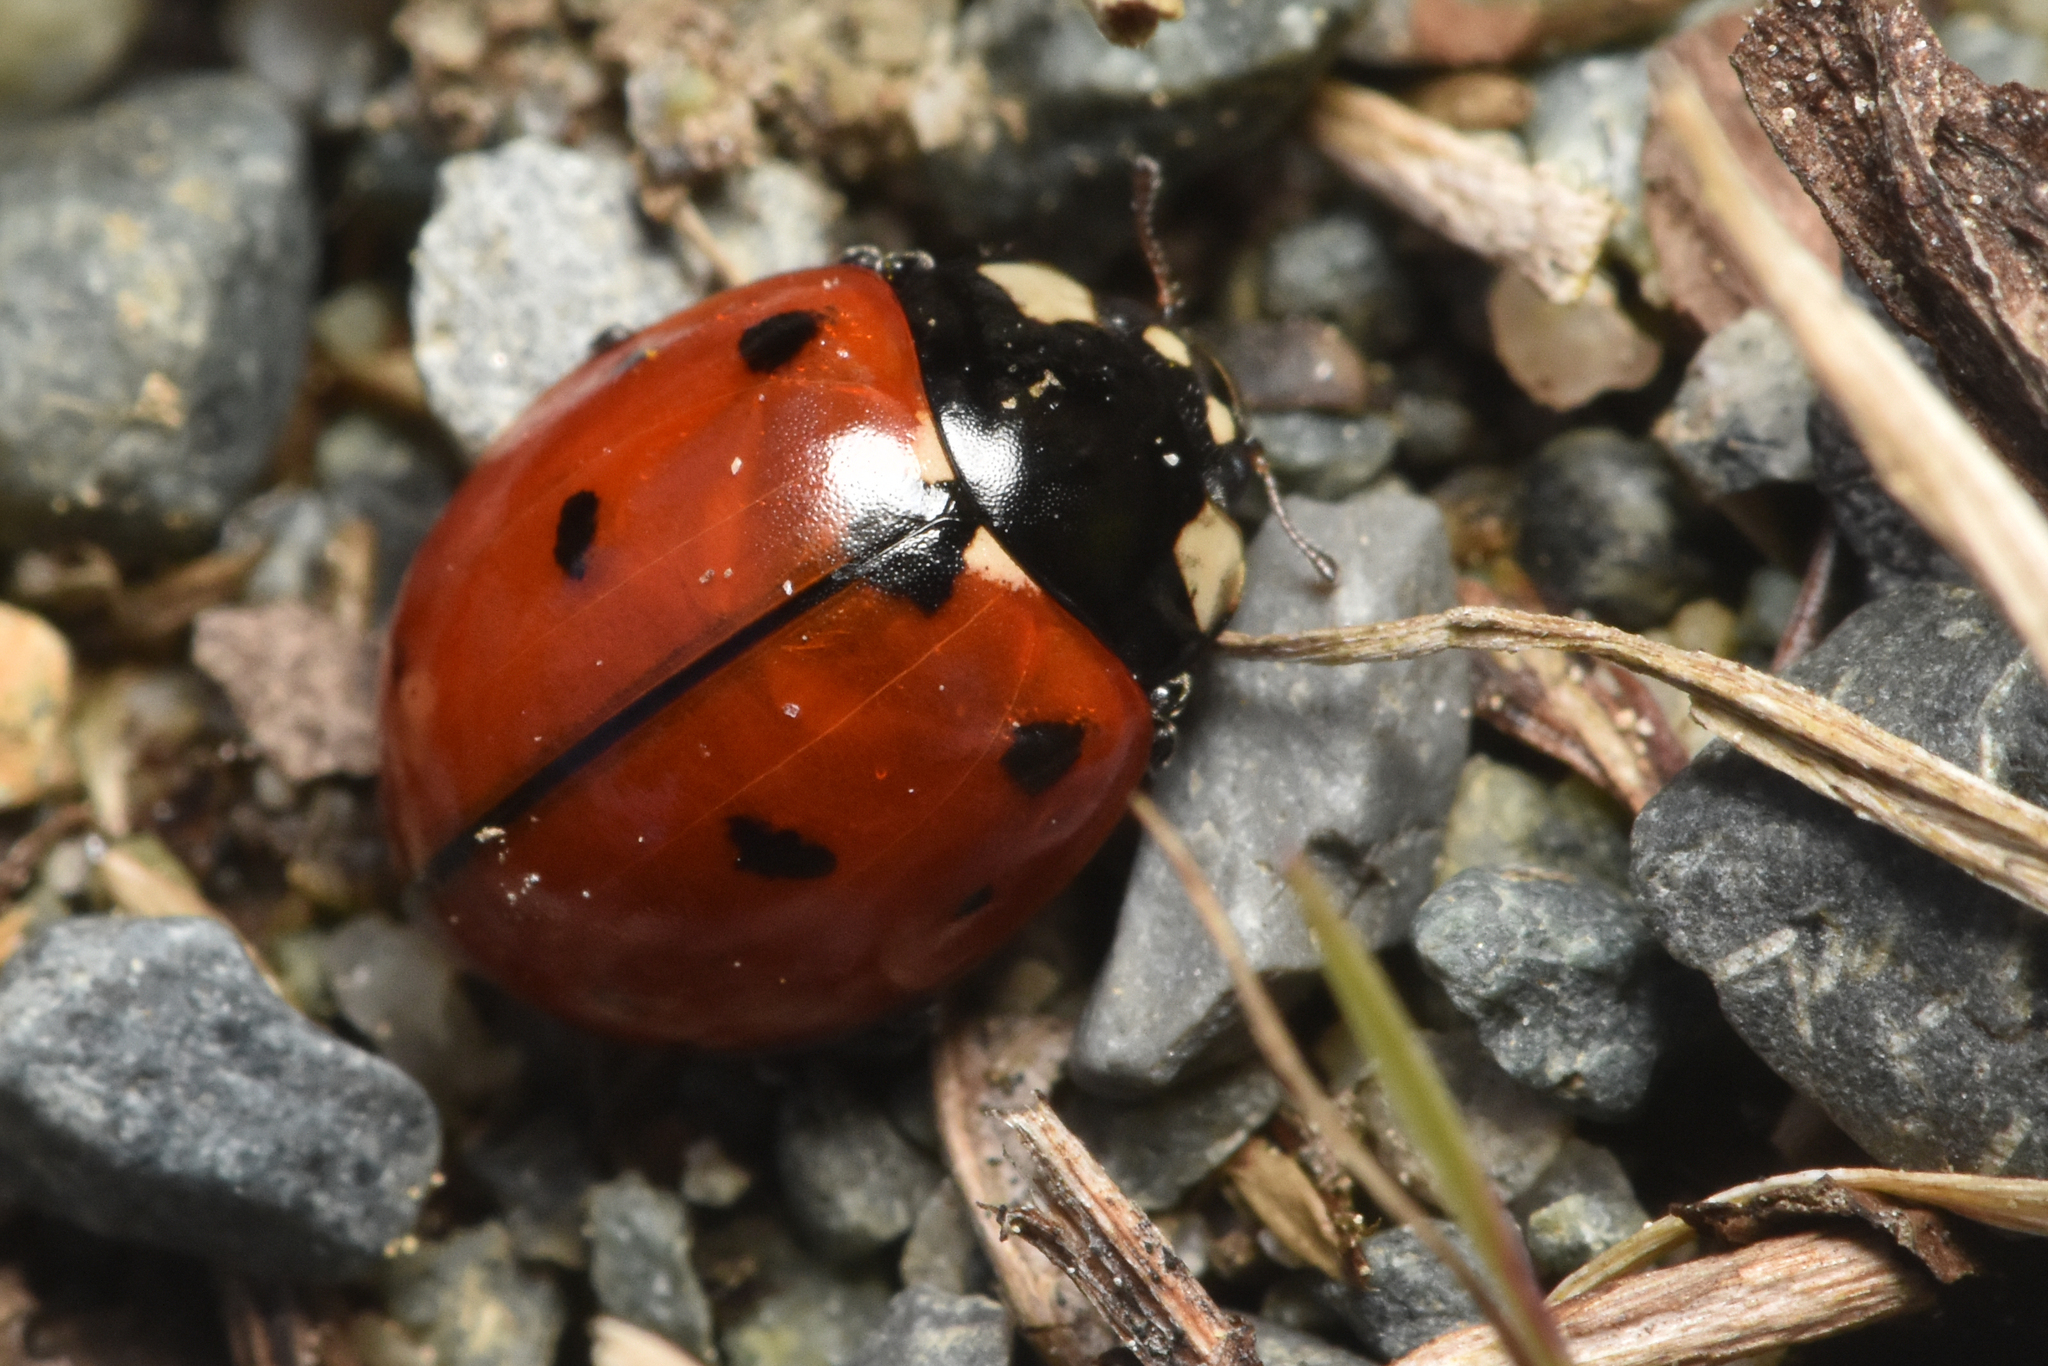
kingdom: Animalia
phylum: Arthropoda
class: Insecta
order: Coleoptera
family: Coccinellidae
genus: Coccinella
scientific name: Coccinella californica
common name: Lady beetle
